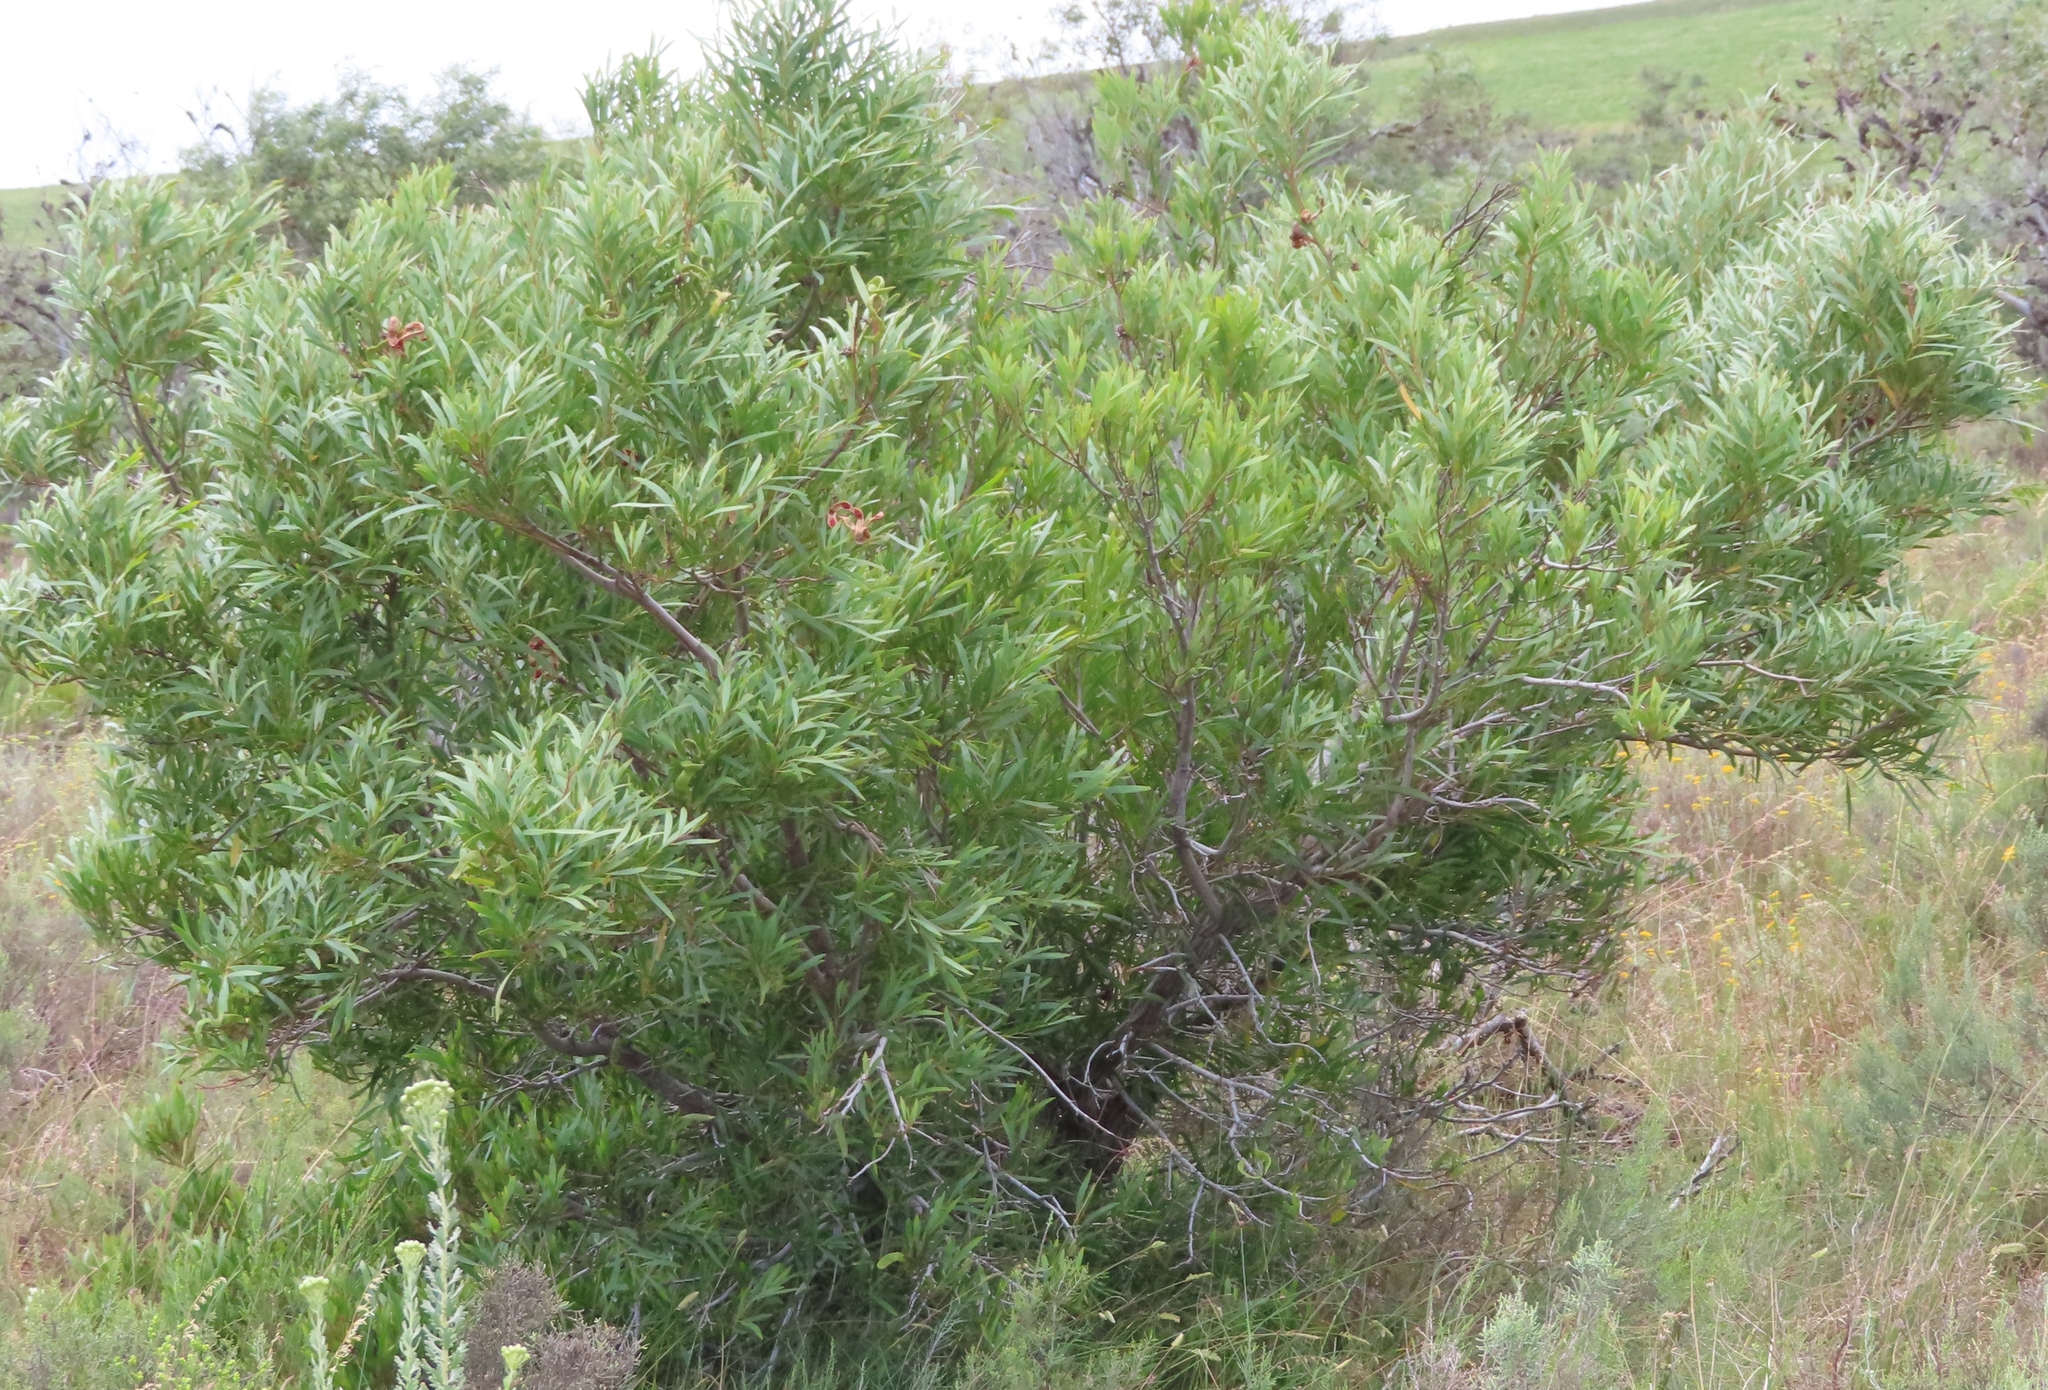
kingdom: Plantae
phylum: Tracheophyta
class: Magnoliopsida
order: Fabales
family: Fabaceae
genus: Acacia
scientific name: Acacia cyclops
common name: Coastal wattle
